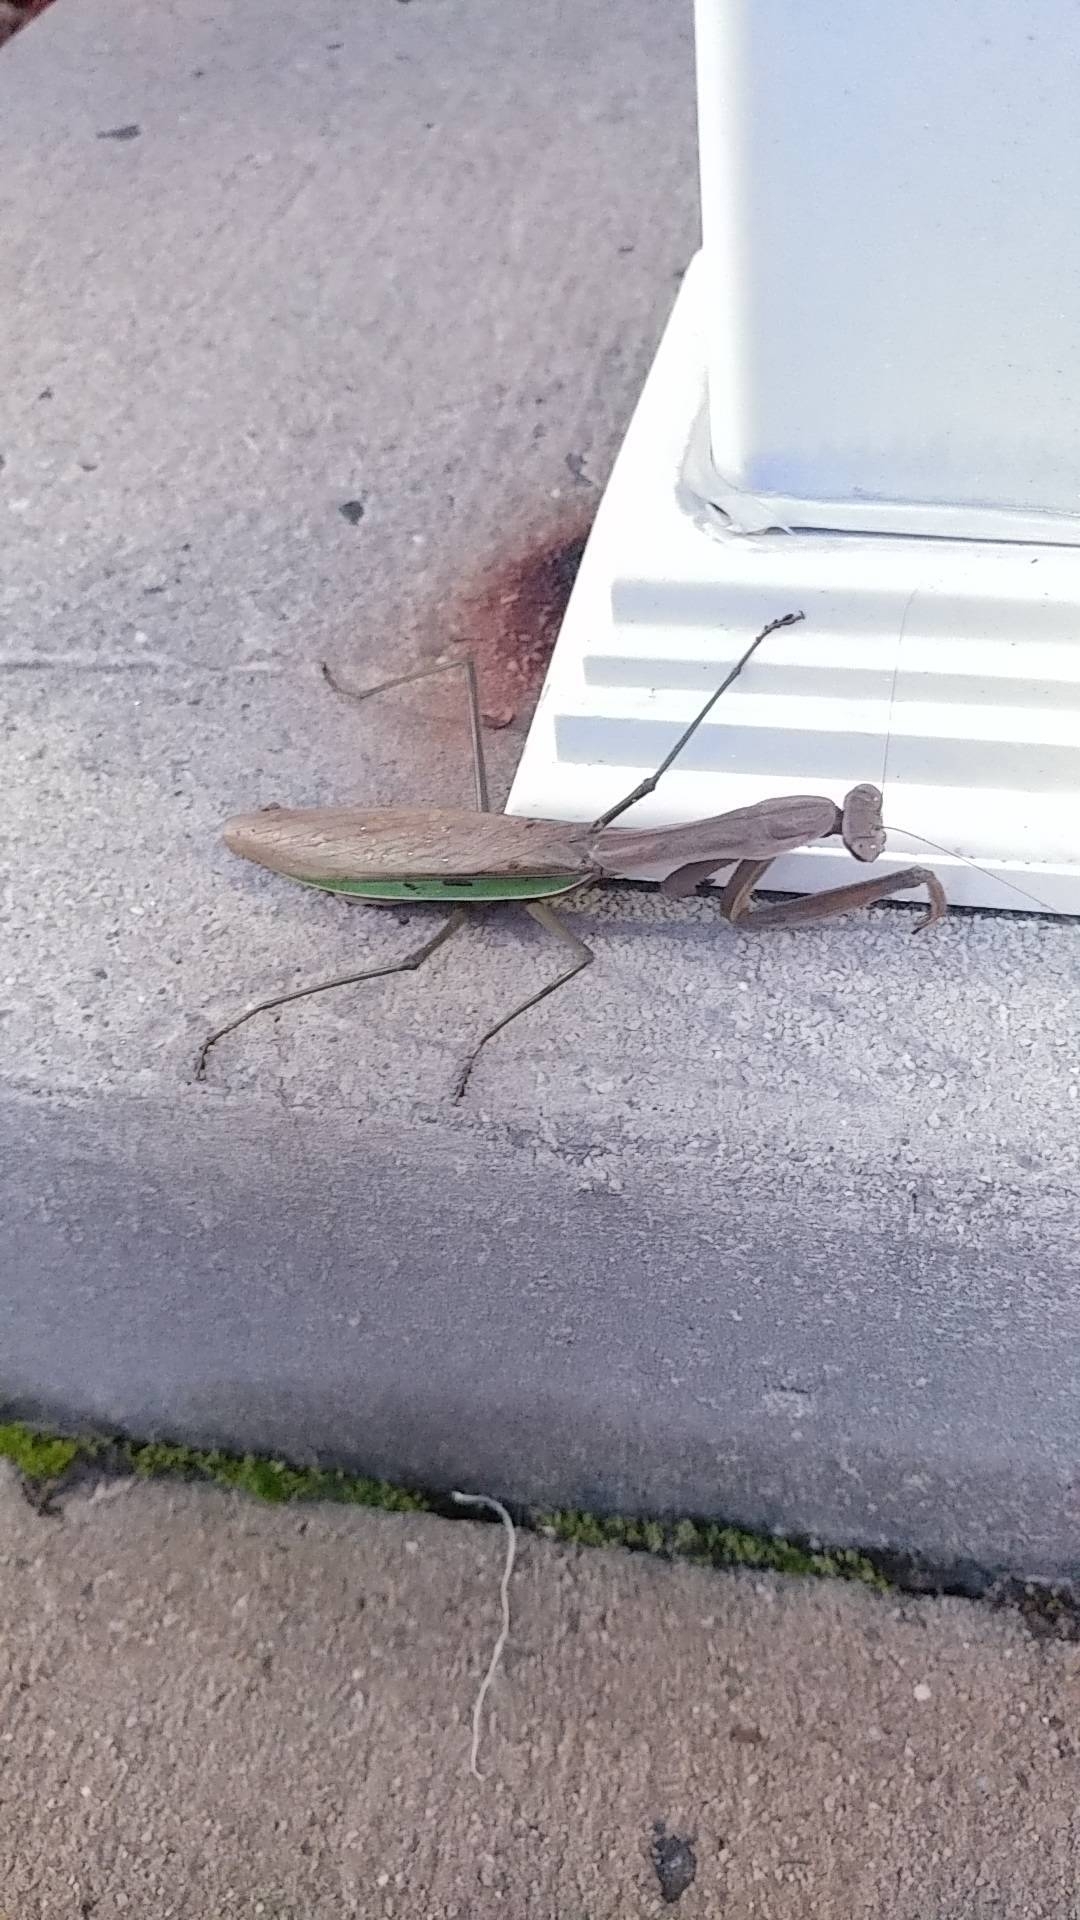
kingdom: Animalia
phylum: Arthropoda
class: Insecta
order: Mantodea
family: Mantidae
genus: Tenodera
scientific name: Tenodera sinensis
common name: Chinese mantis
